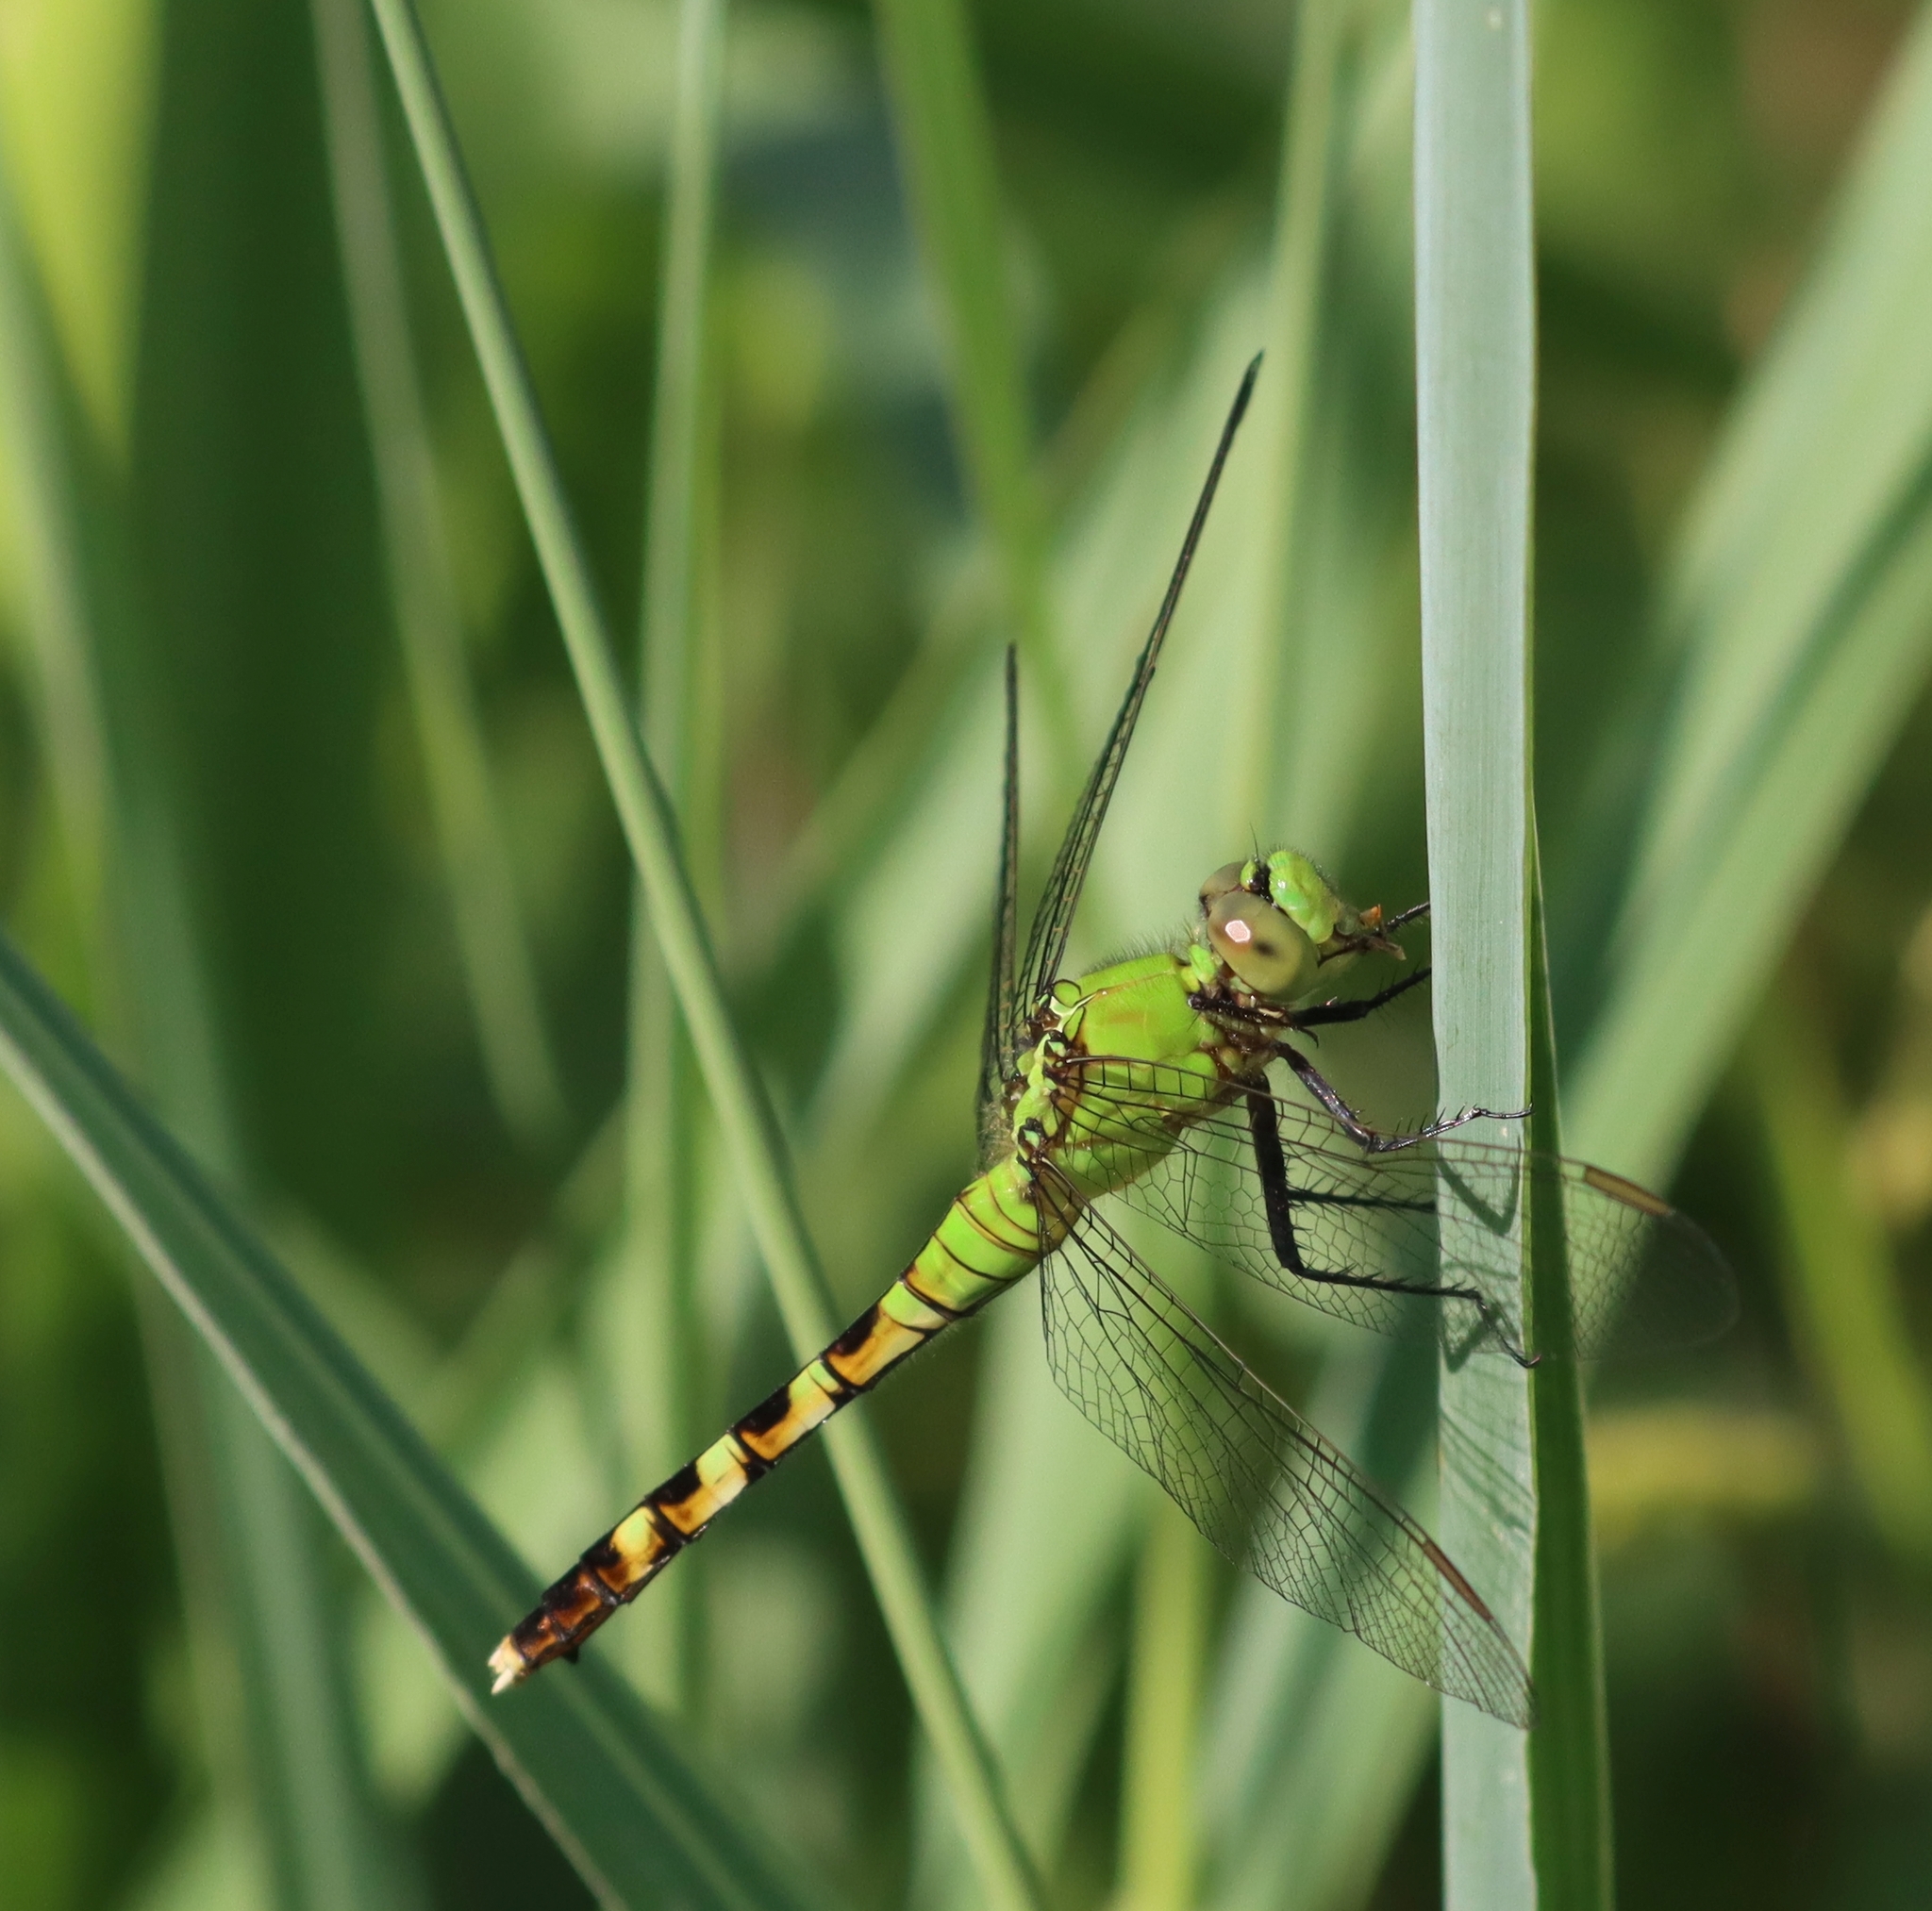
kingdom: Animalia
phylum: Arthropoda
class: Insecta
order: Odonata
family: Libellulidae
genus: Erythemis
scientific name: Erythemis simplicicollis
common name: Eastern pondhawk
